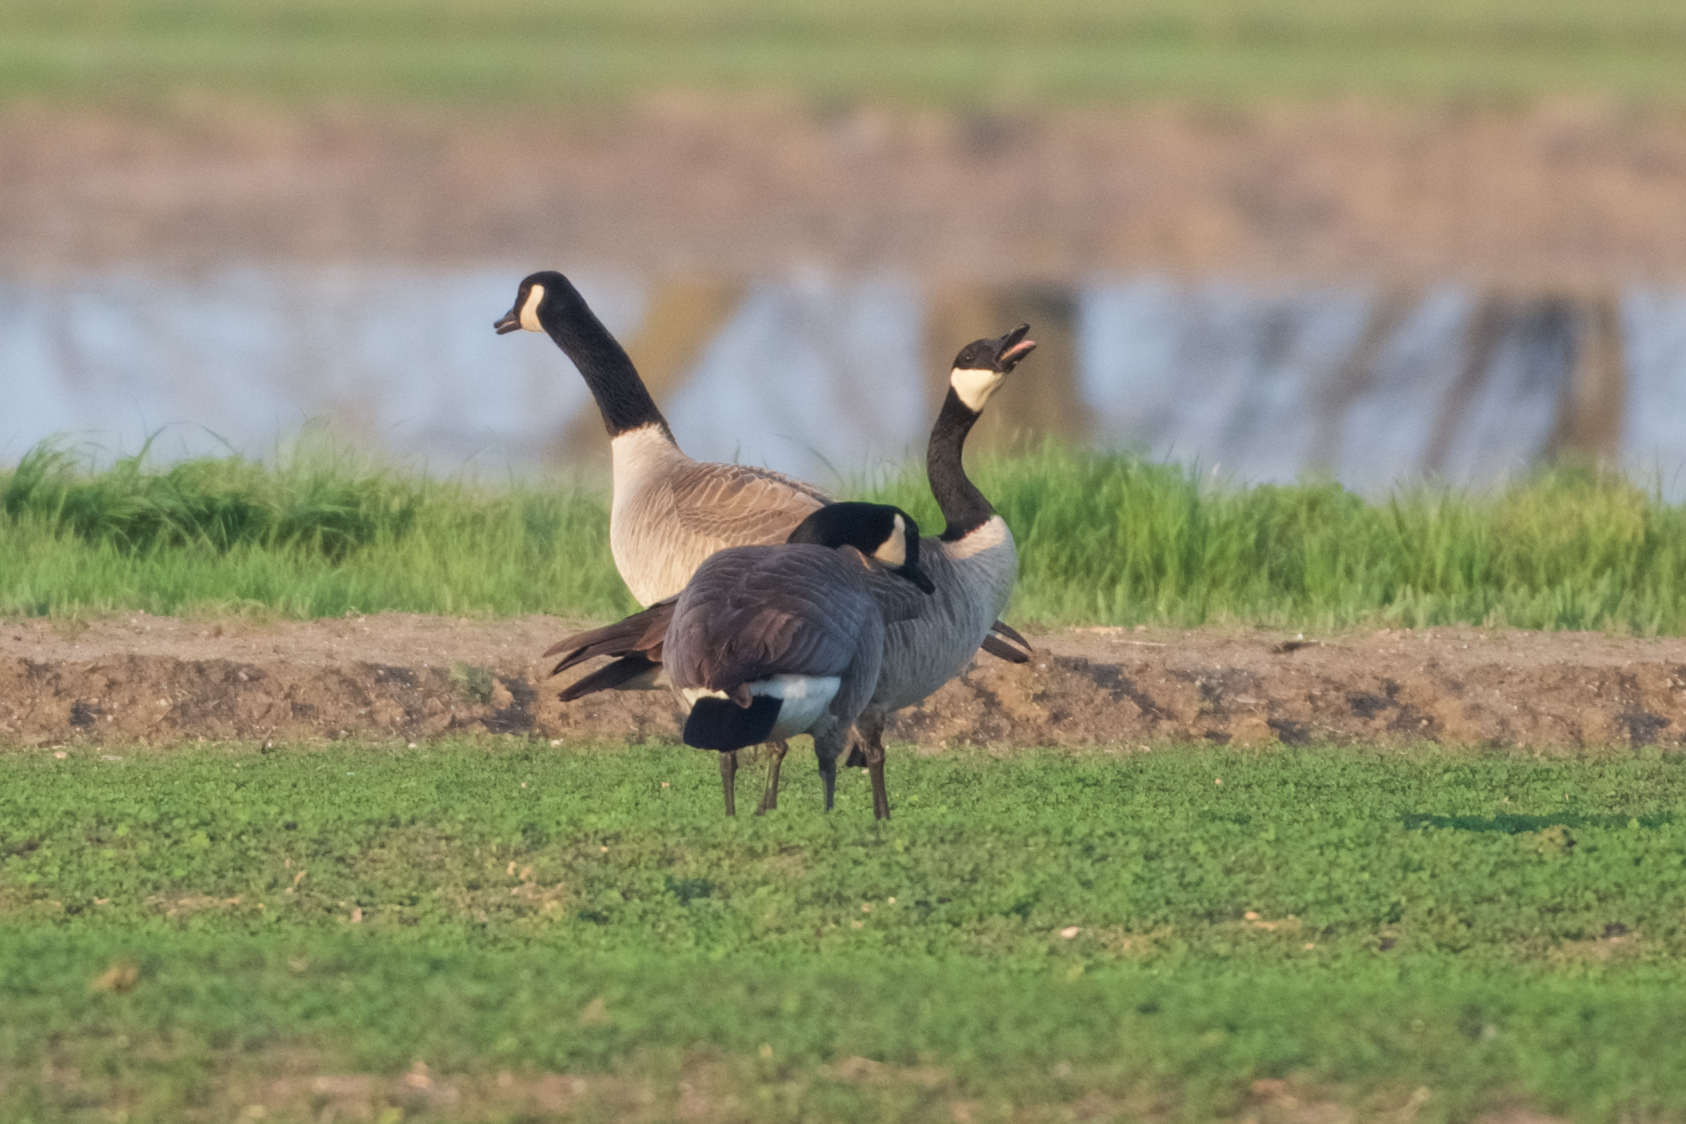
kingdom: Animalia
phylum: Chordata
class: Aves
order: Anseriformes
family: Anatidae
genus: Branta
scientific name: Branta canadensis
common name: Canada goose
